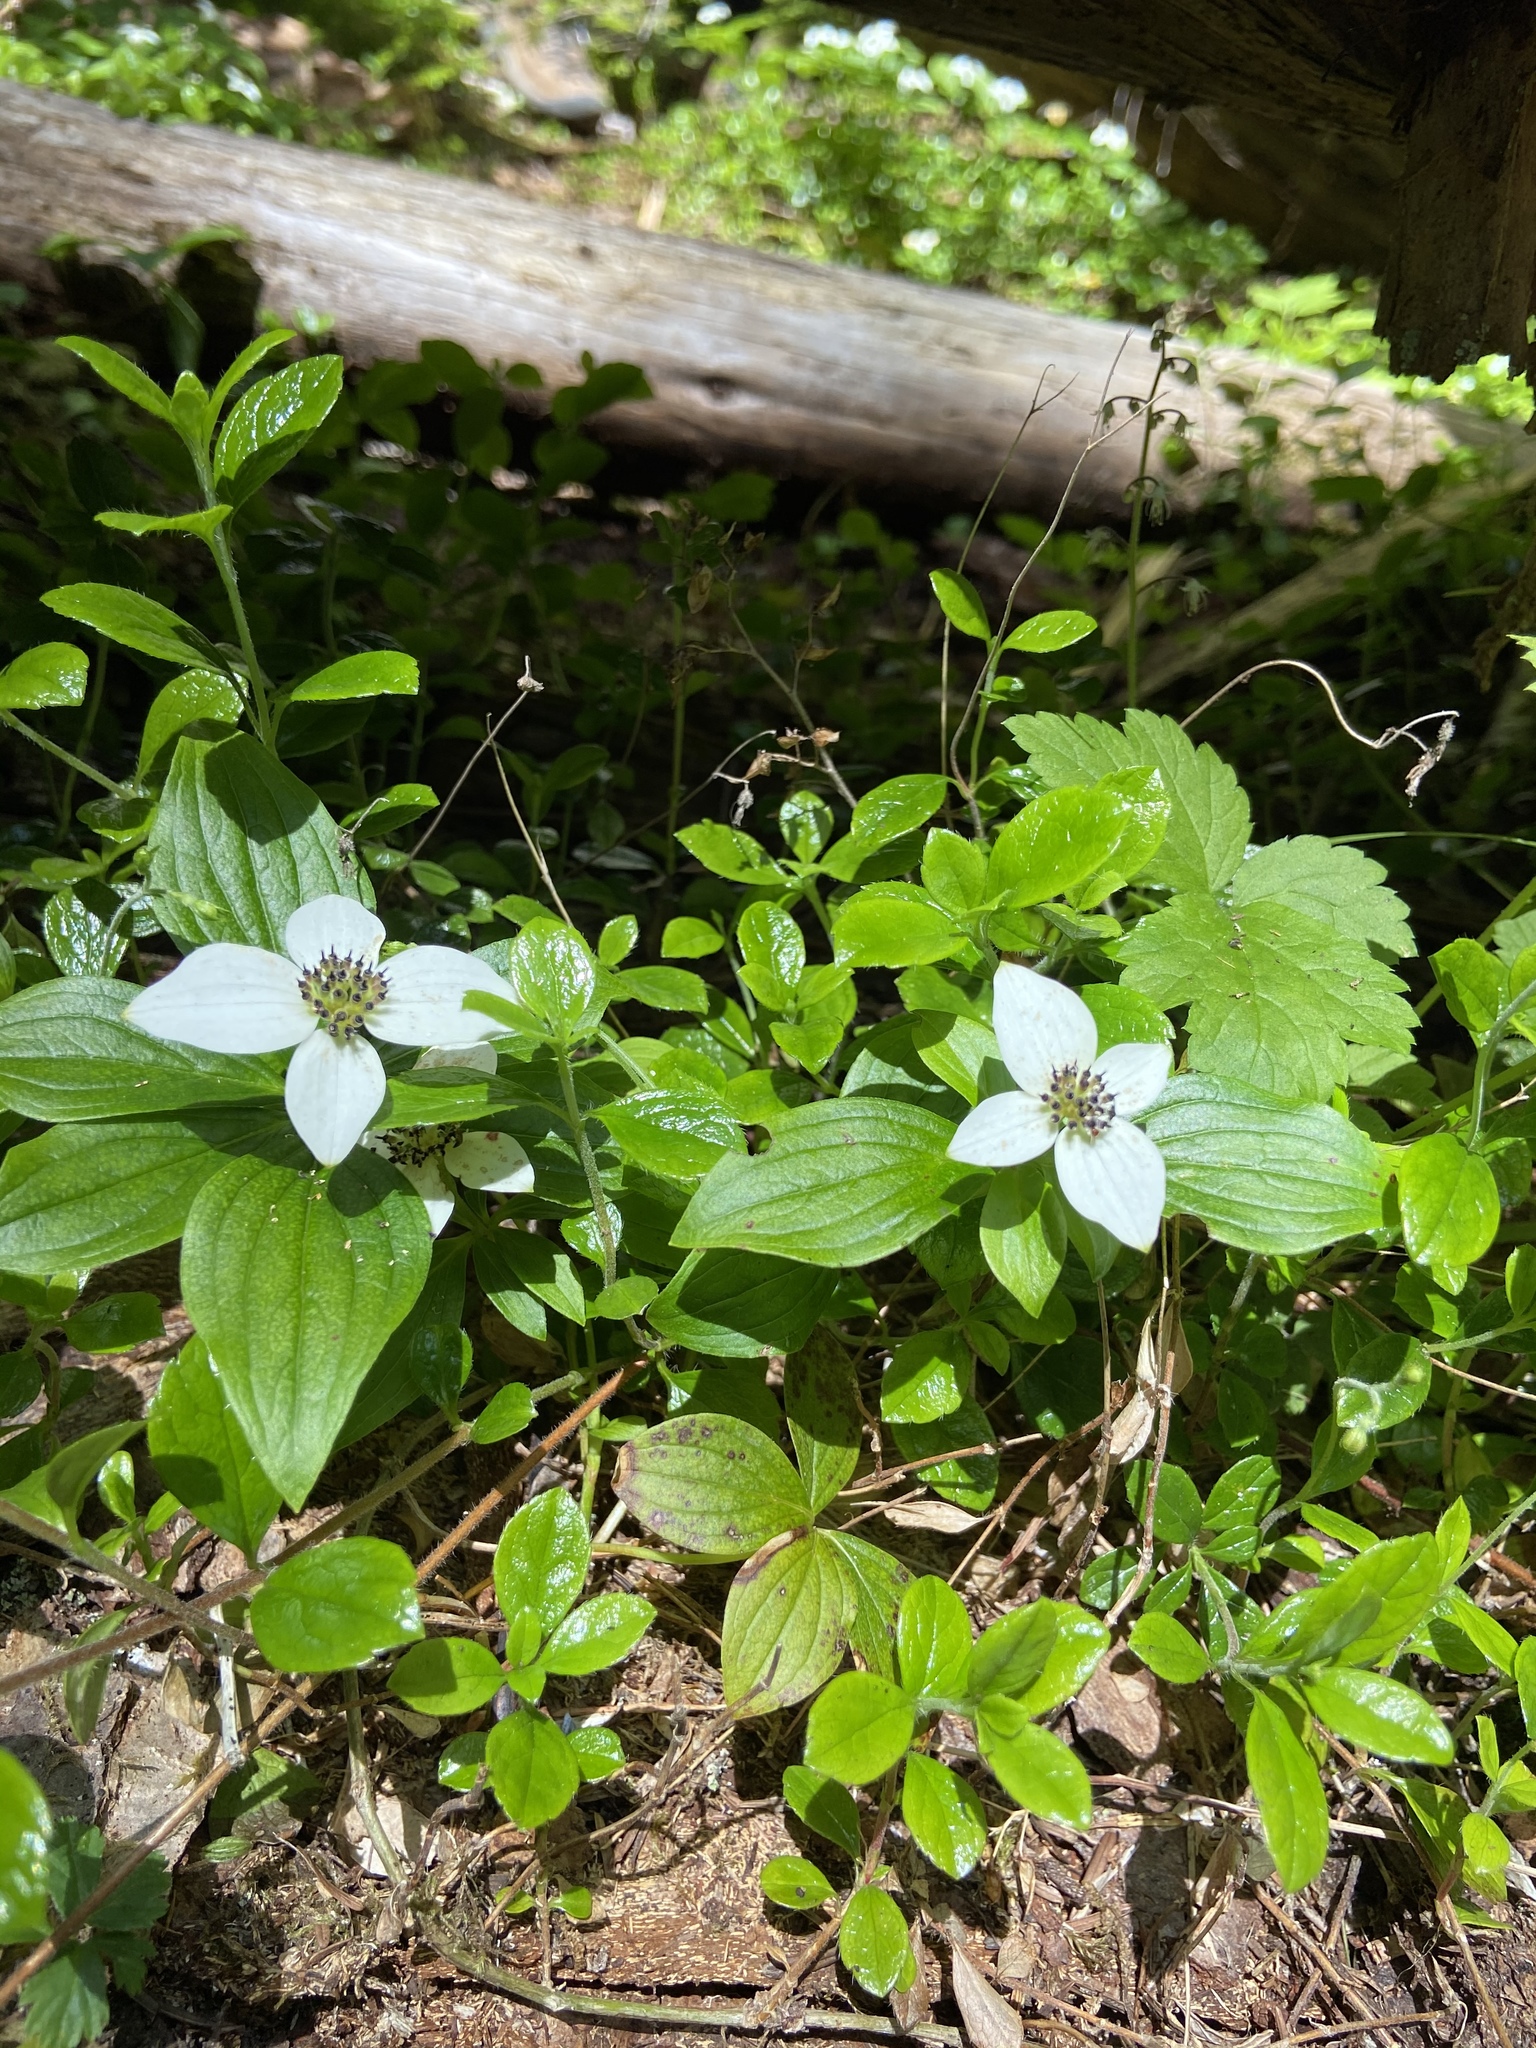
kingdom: Plantae
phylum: Tracheophyta
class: Magnoliopsida
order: Cornales
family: Cornaceae
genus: Cornus
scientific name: Cornus unalaschkensis
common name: Alaska bunchberry
